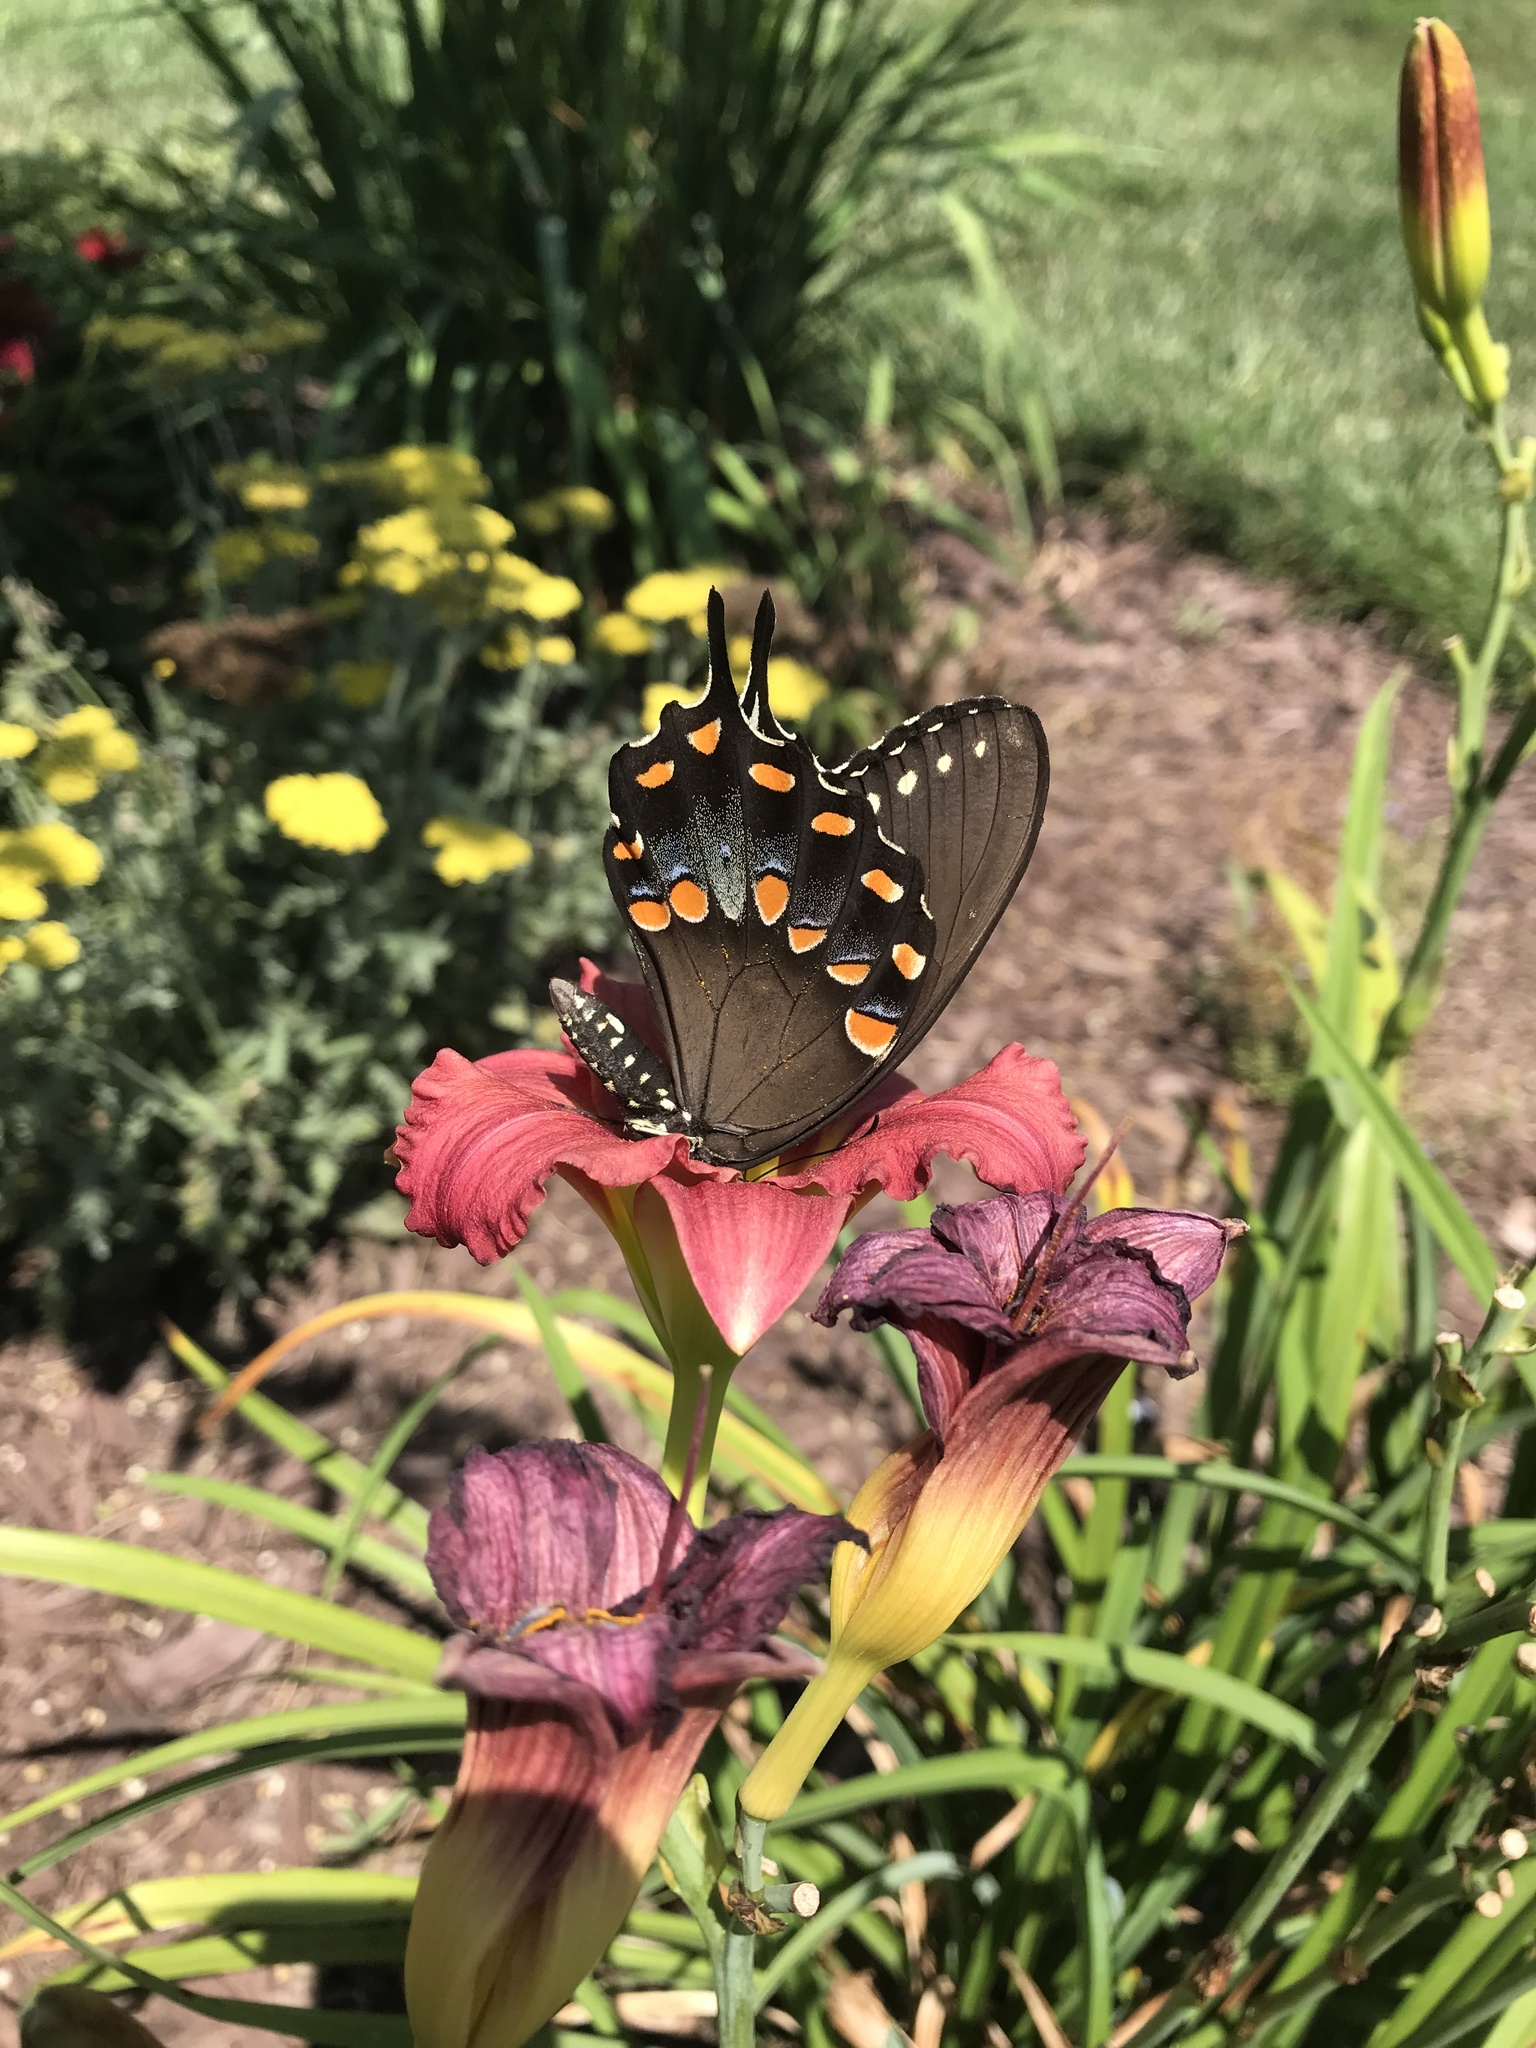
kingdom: Animalia
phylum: Arthropoda
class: Insecta
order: Lepidoptera
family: Papilionidae
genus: Papilio
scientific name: Papilio troilus
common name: Spicebush swallowtail
